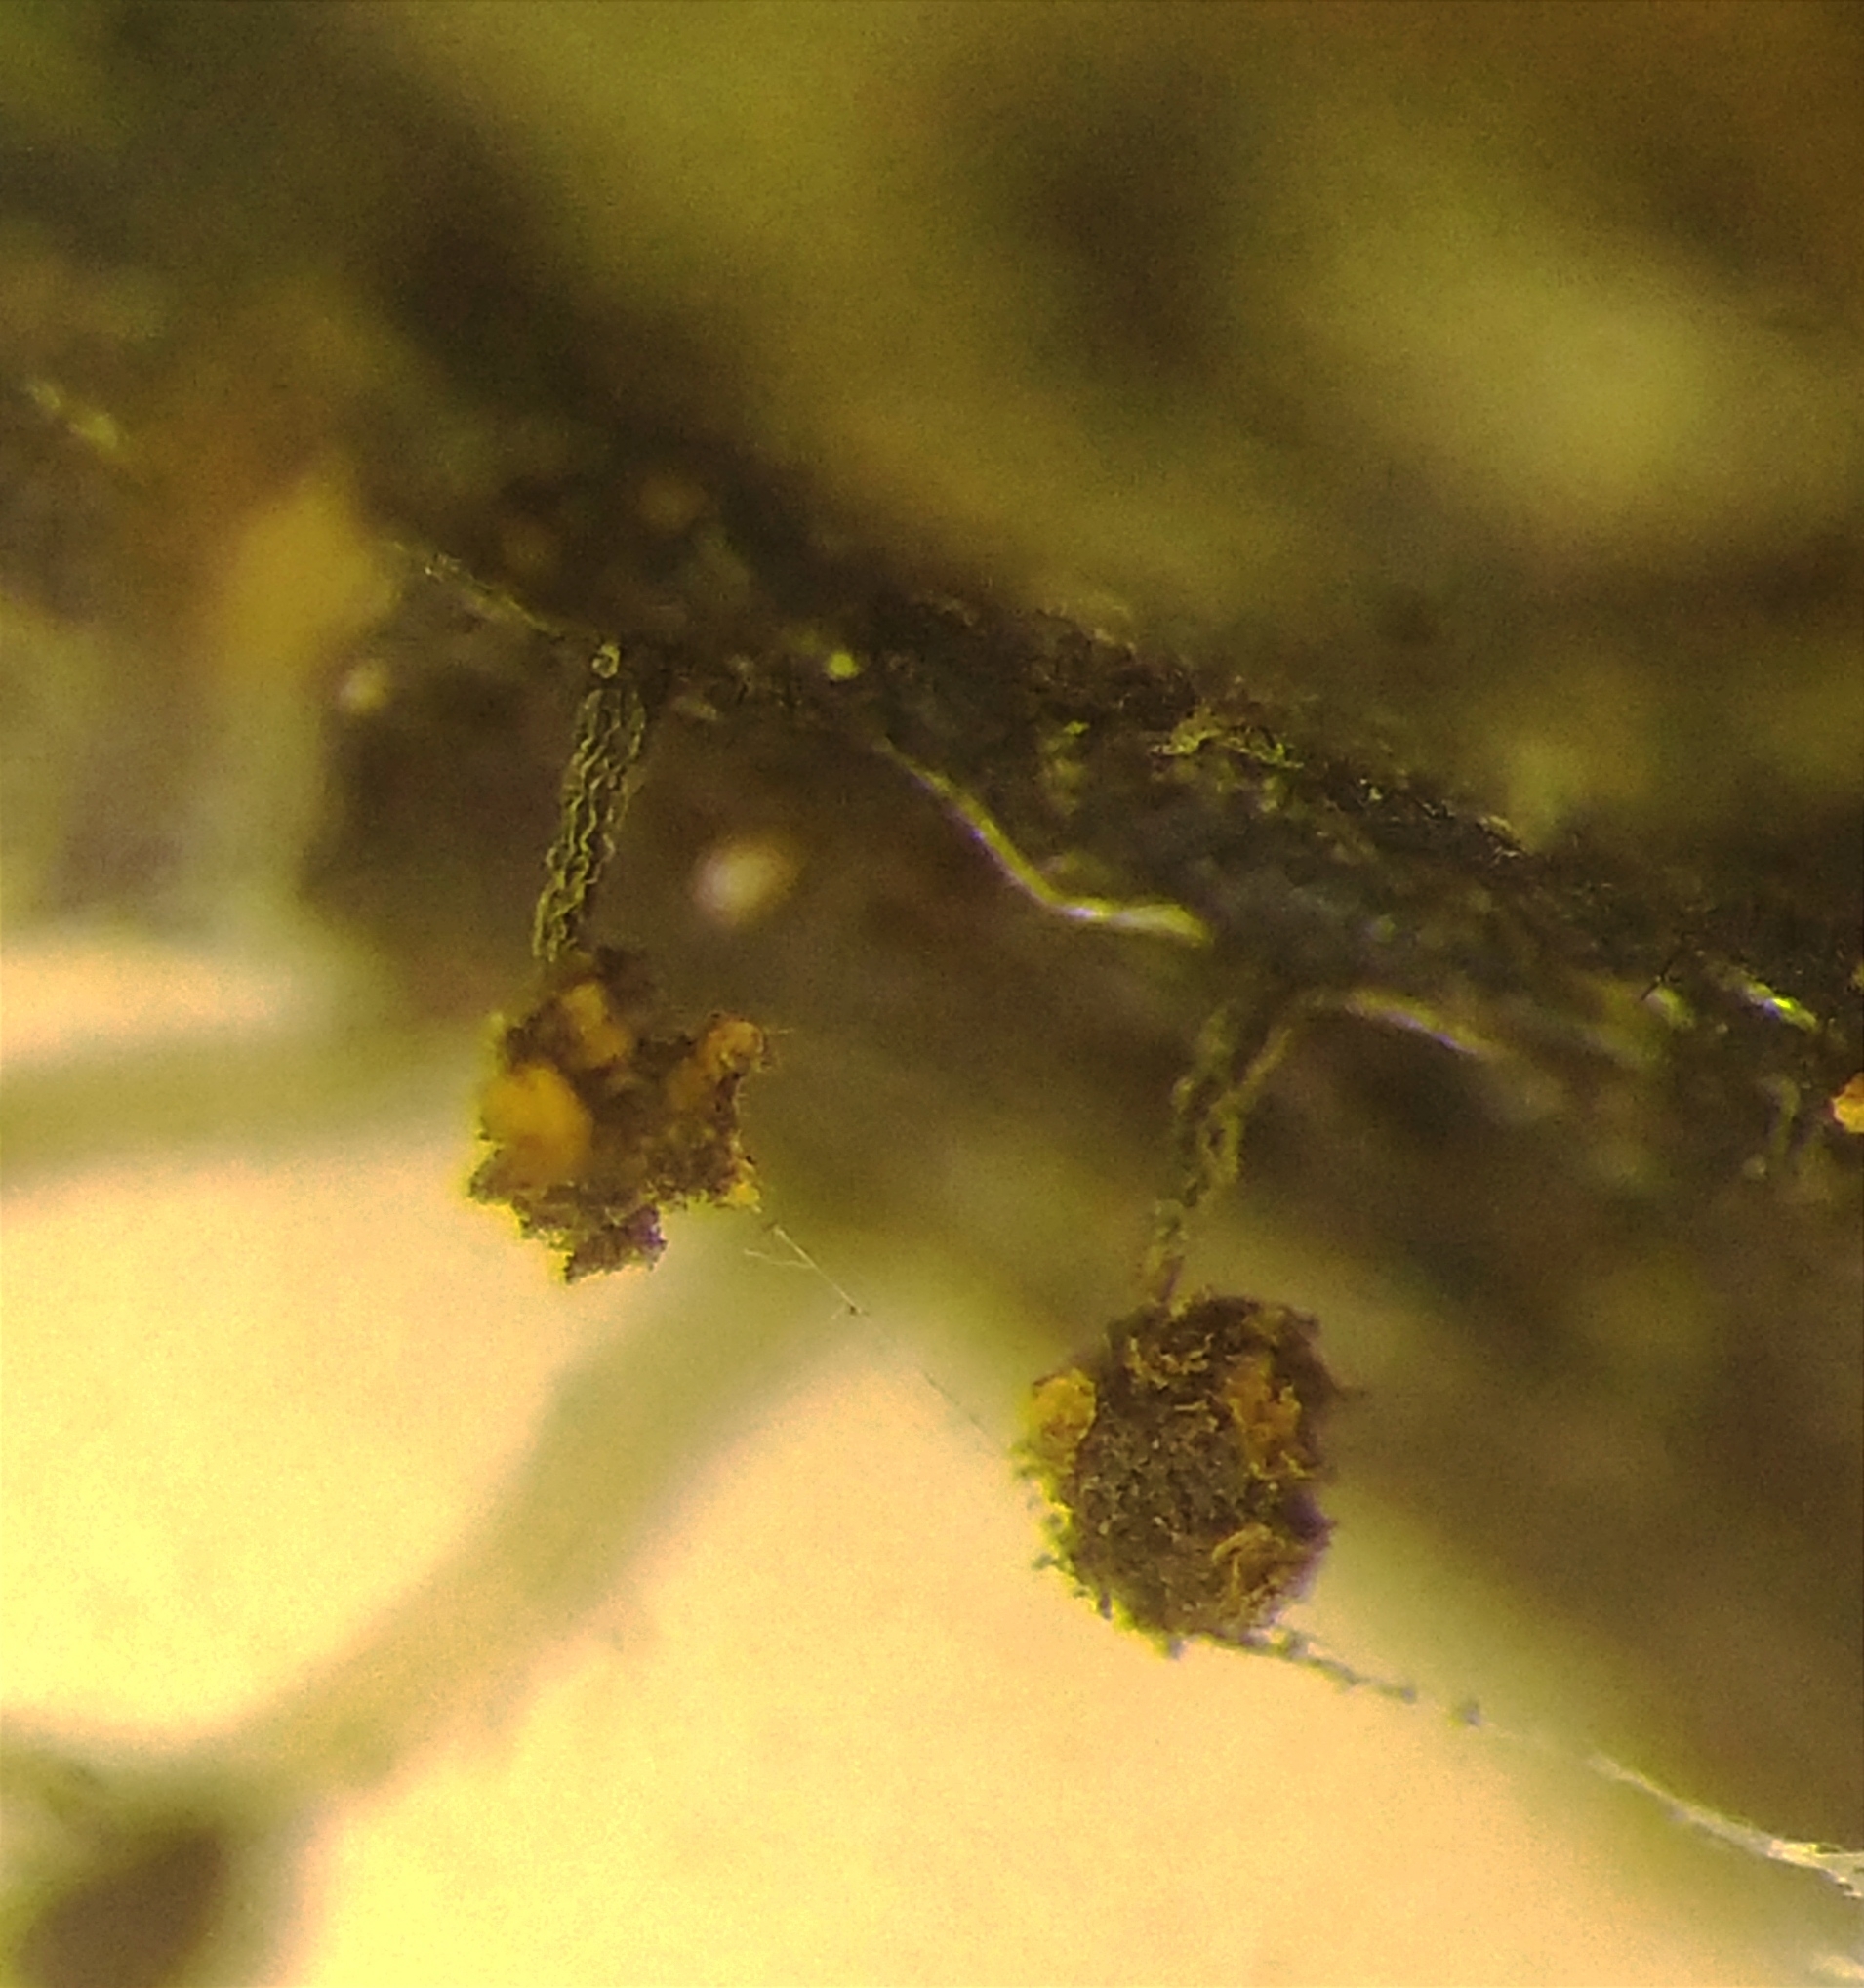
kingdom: Protozoa
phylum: Mycetozoa
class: Myxomycetes
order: Physarales
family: Physaraceae
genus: Physarum
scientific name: Physarum viride
